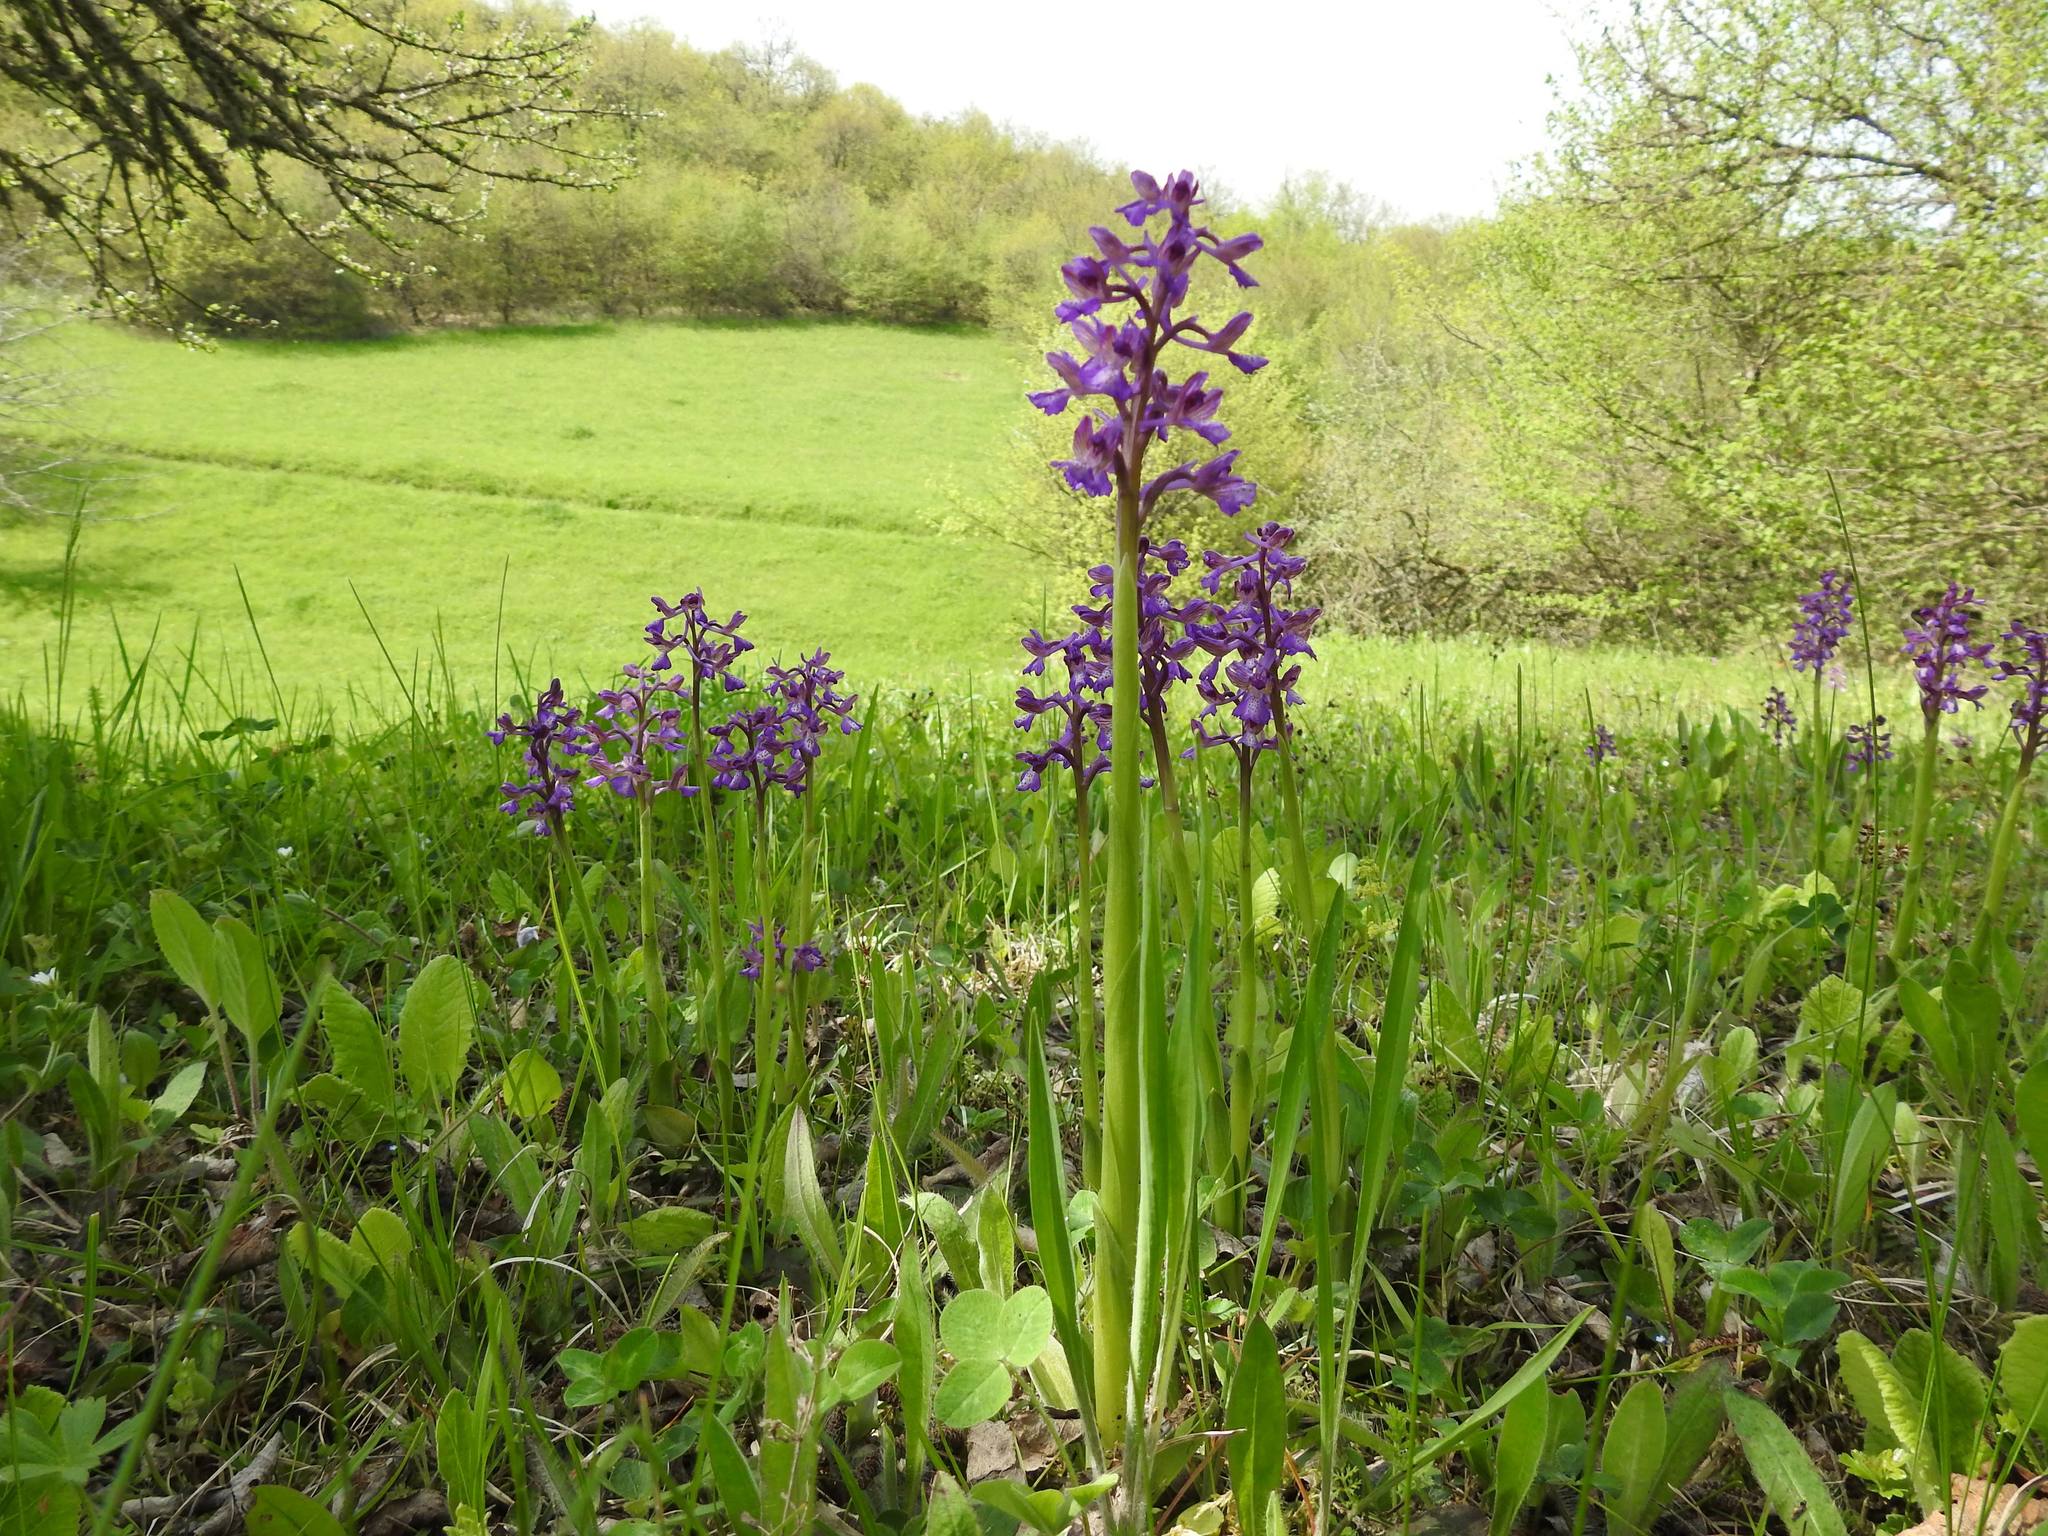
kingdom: Plantae
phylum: Tracheophyta
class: Liliopsida
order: Asparagales
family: Orchidaceae
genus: Anacamptis
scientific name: Anacamptis morio
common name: Green-winged orchid
